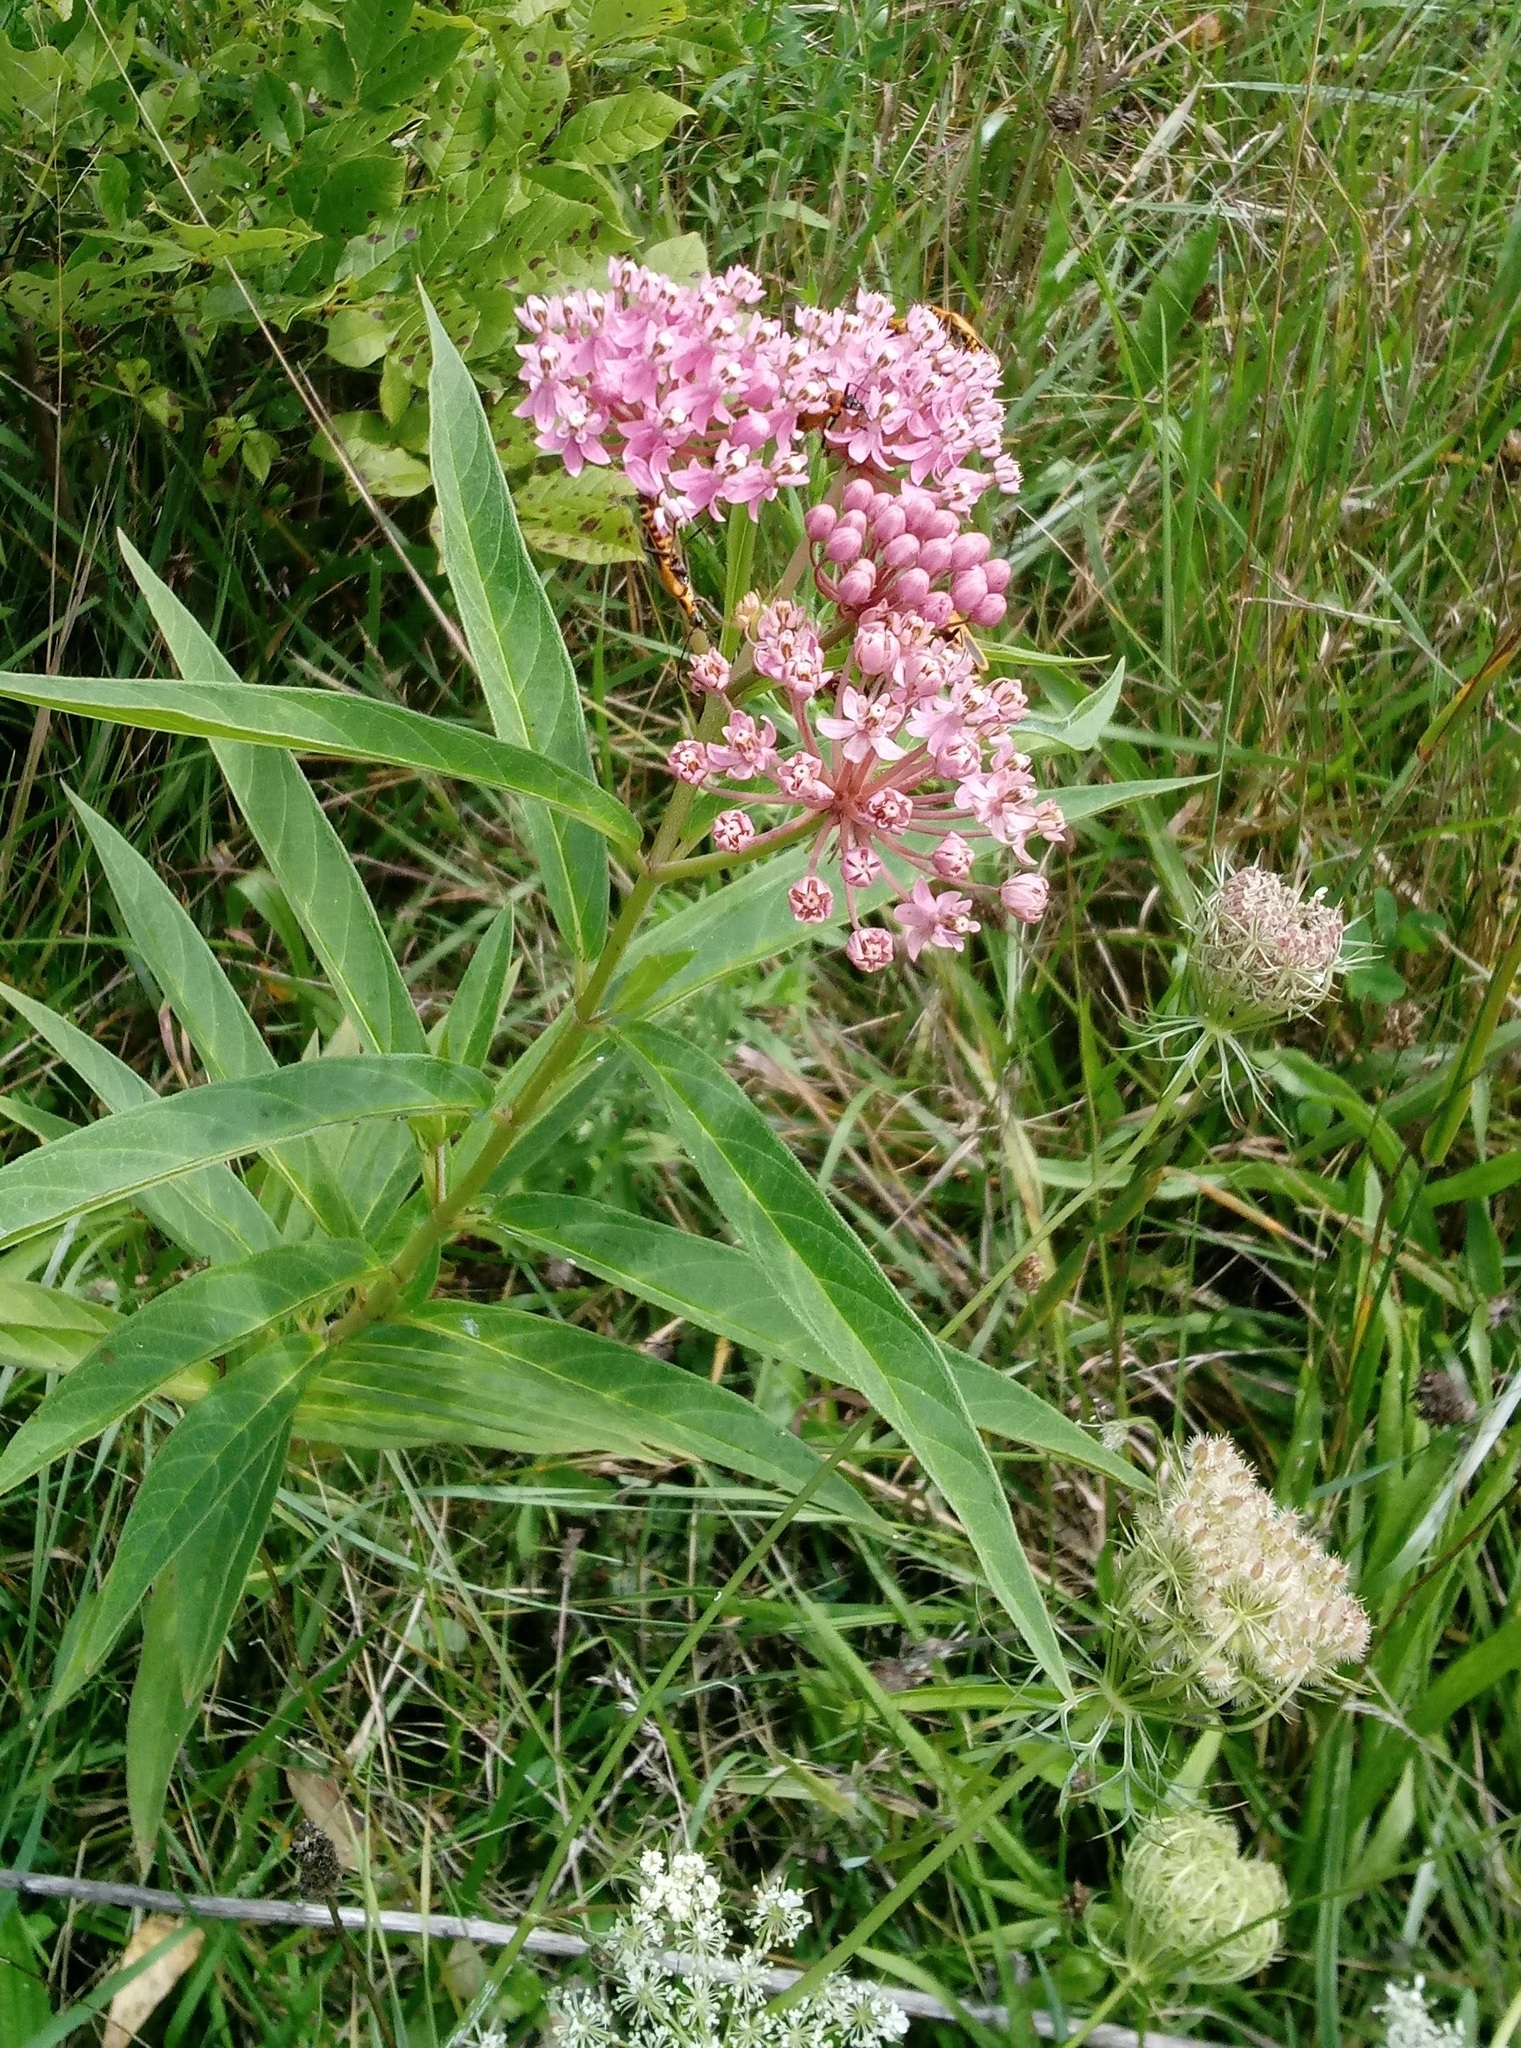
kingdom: Plantae
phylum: Tracheophyta
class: Magnoliopsida
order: Gentianales
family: Apocynaceae
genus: Asclepias
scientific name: Asclepias incarnata
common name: Swamp milkweed
